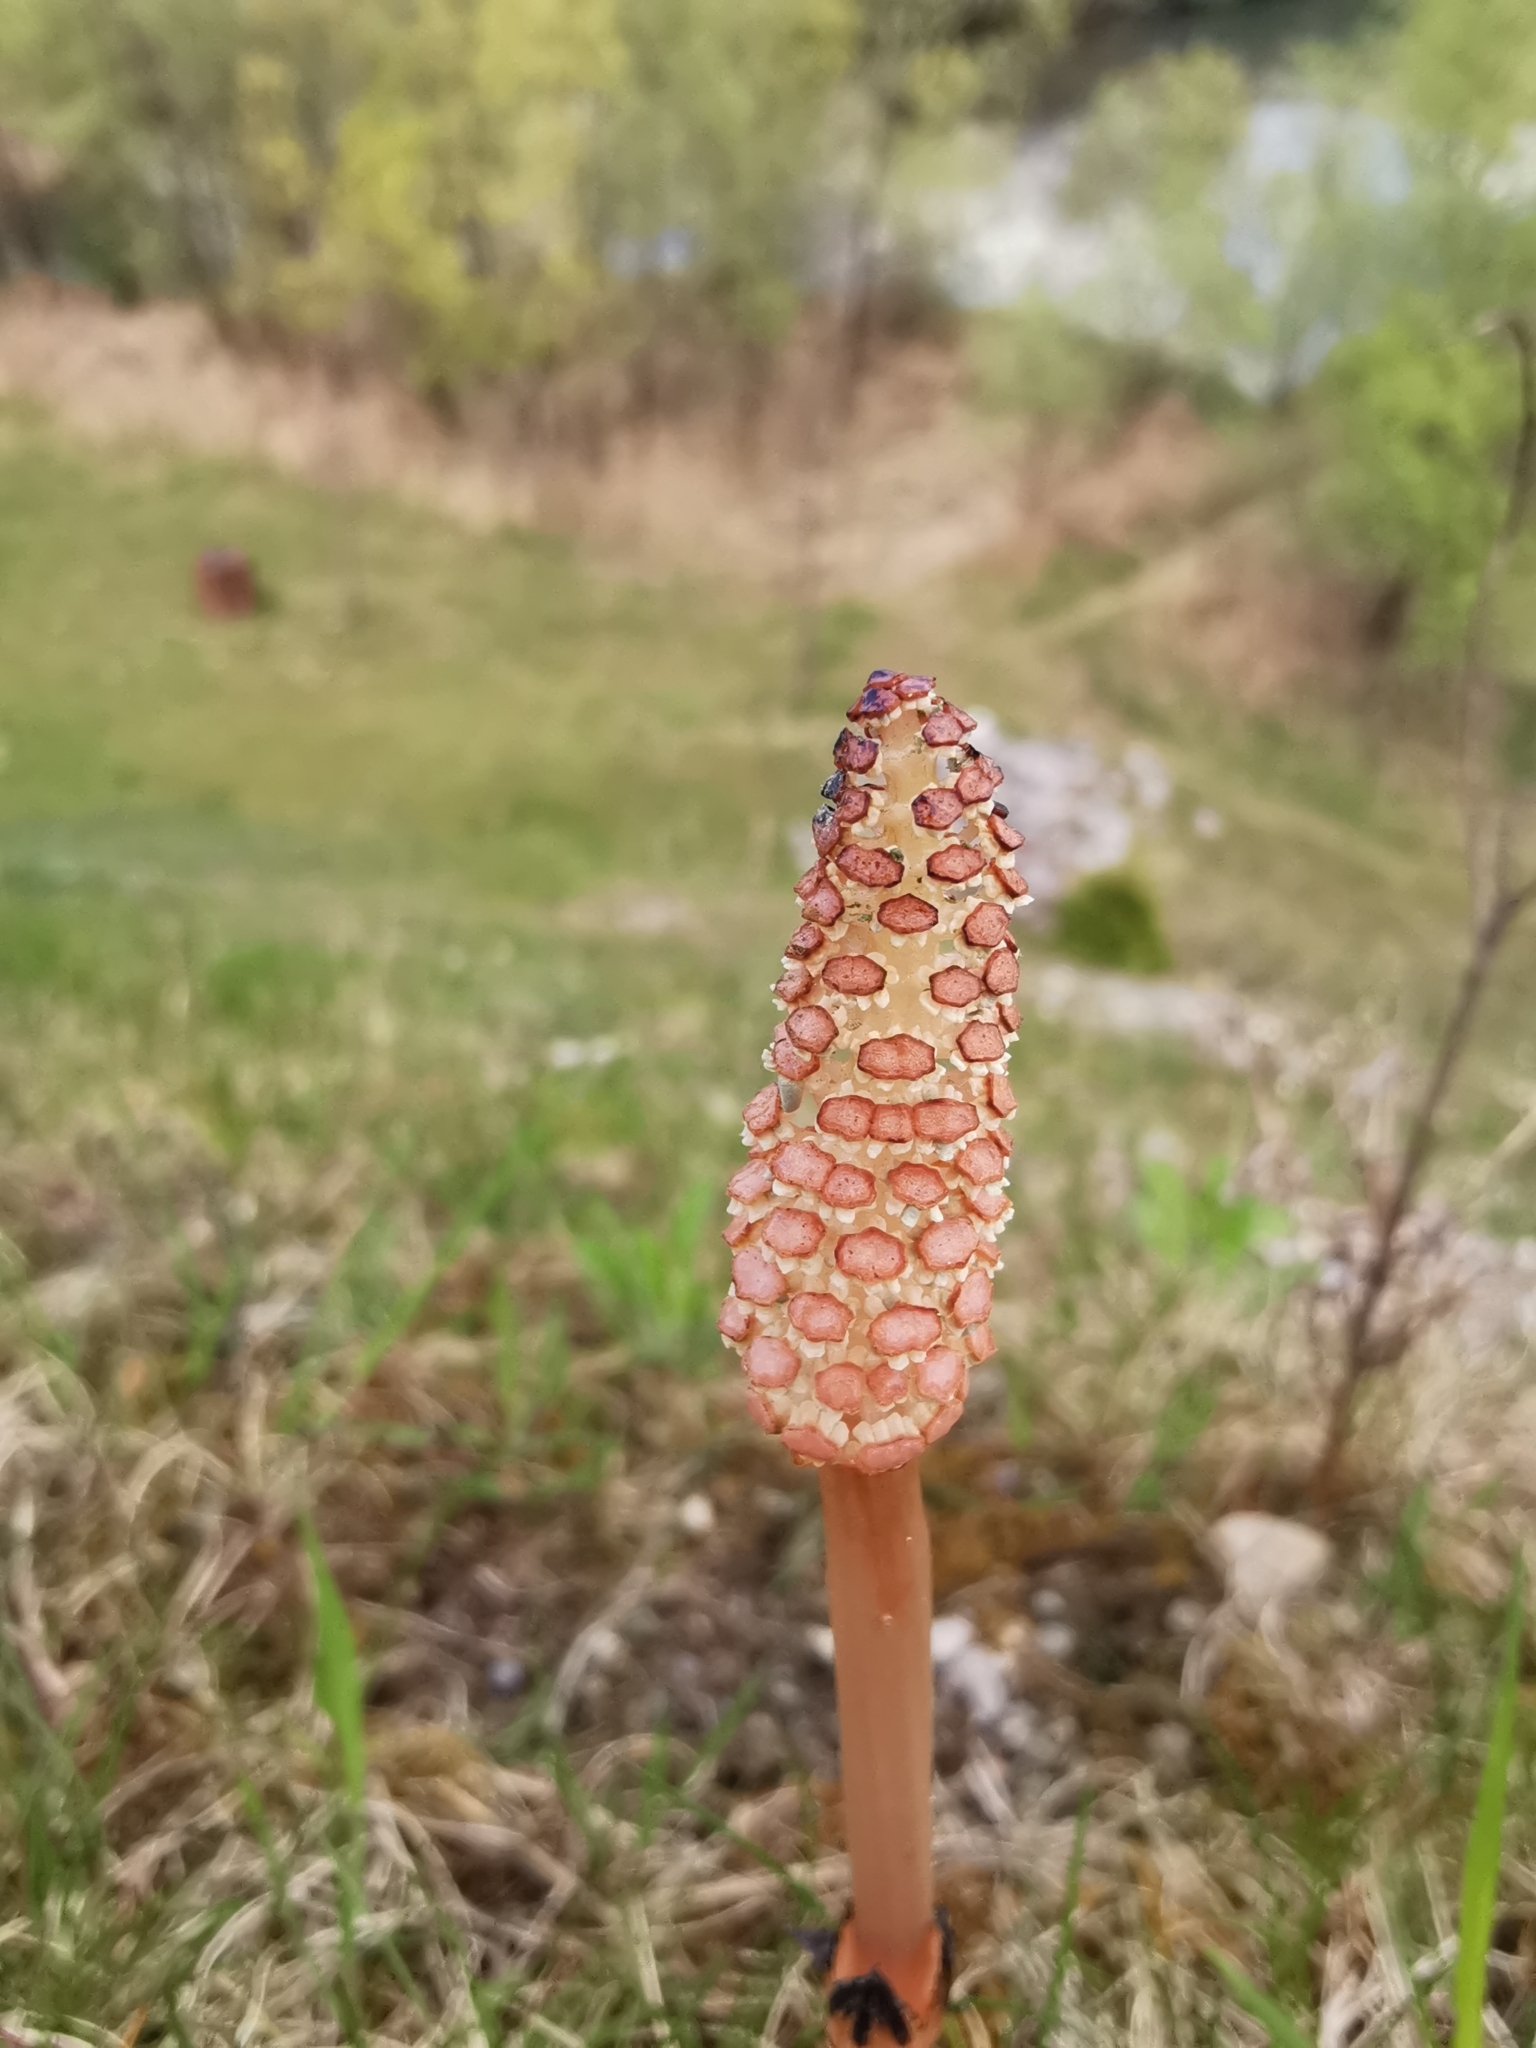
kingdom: Plantae
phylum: Tracheophyta
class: Polypodiopsida
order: Equisetales
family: Equisetaceae
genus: Equisetum
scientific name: Equisetum arvense
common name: Field horsetail
